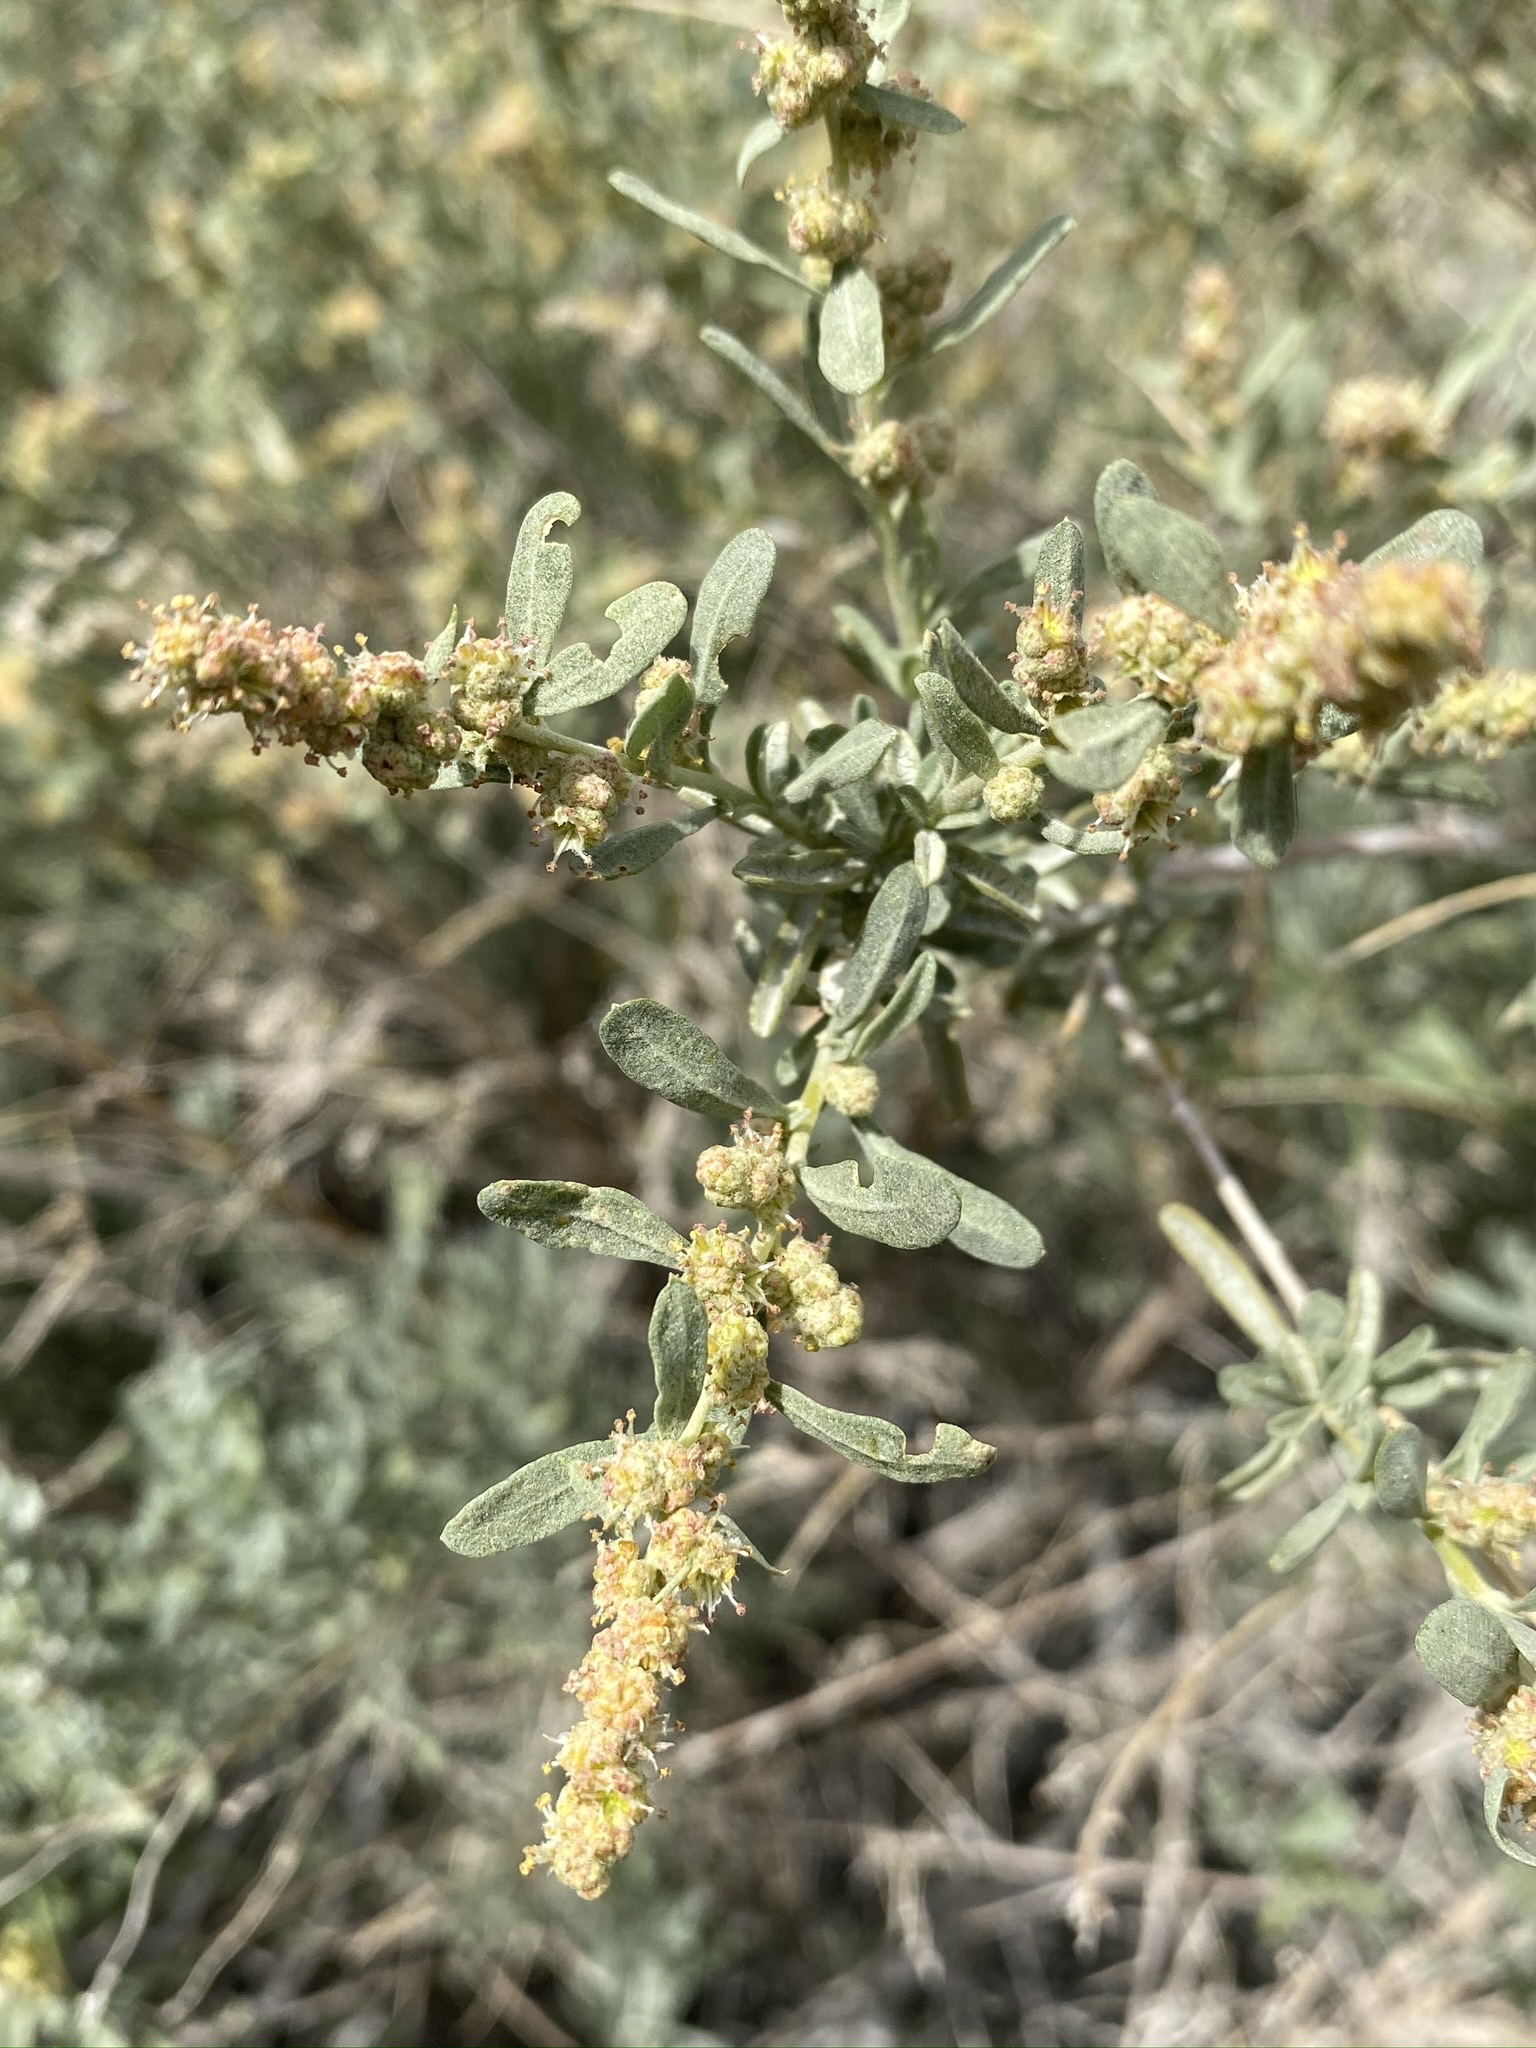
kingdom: Plantae
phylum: Tracheophyta
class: Magnoliopsida
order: Caryophyllales
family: Amaranthaceae
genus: Atriplex
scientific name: Atriplex canescens
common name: Four-wing saltbush
